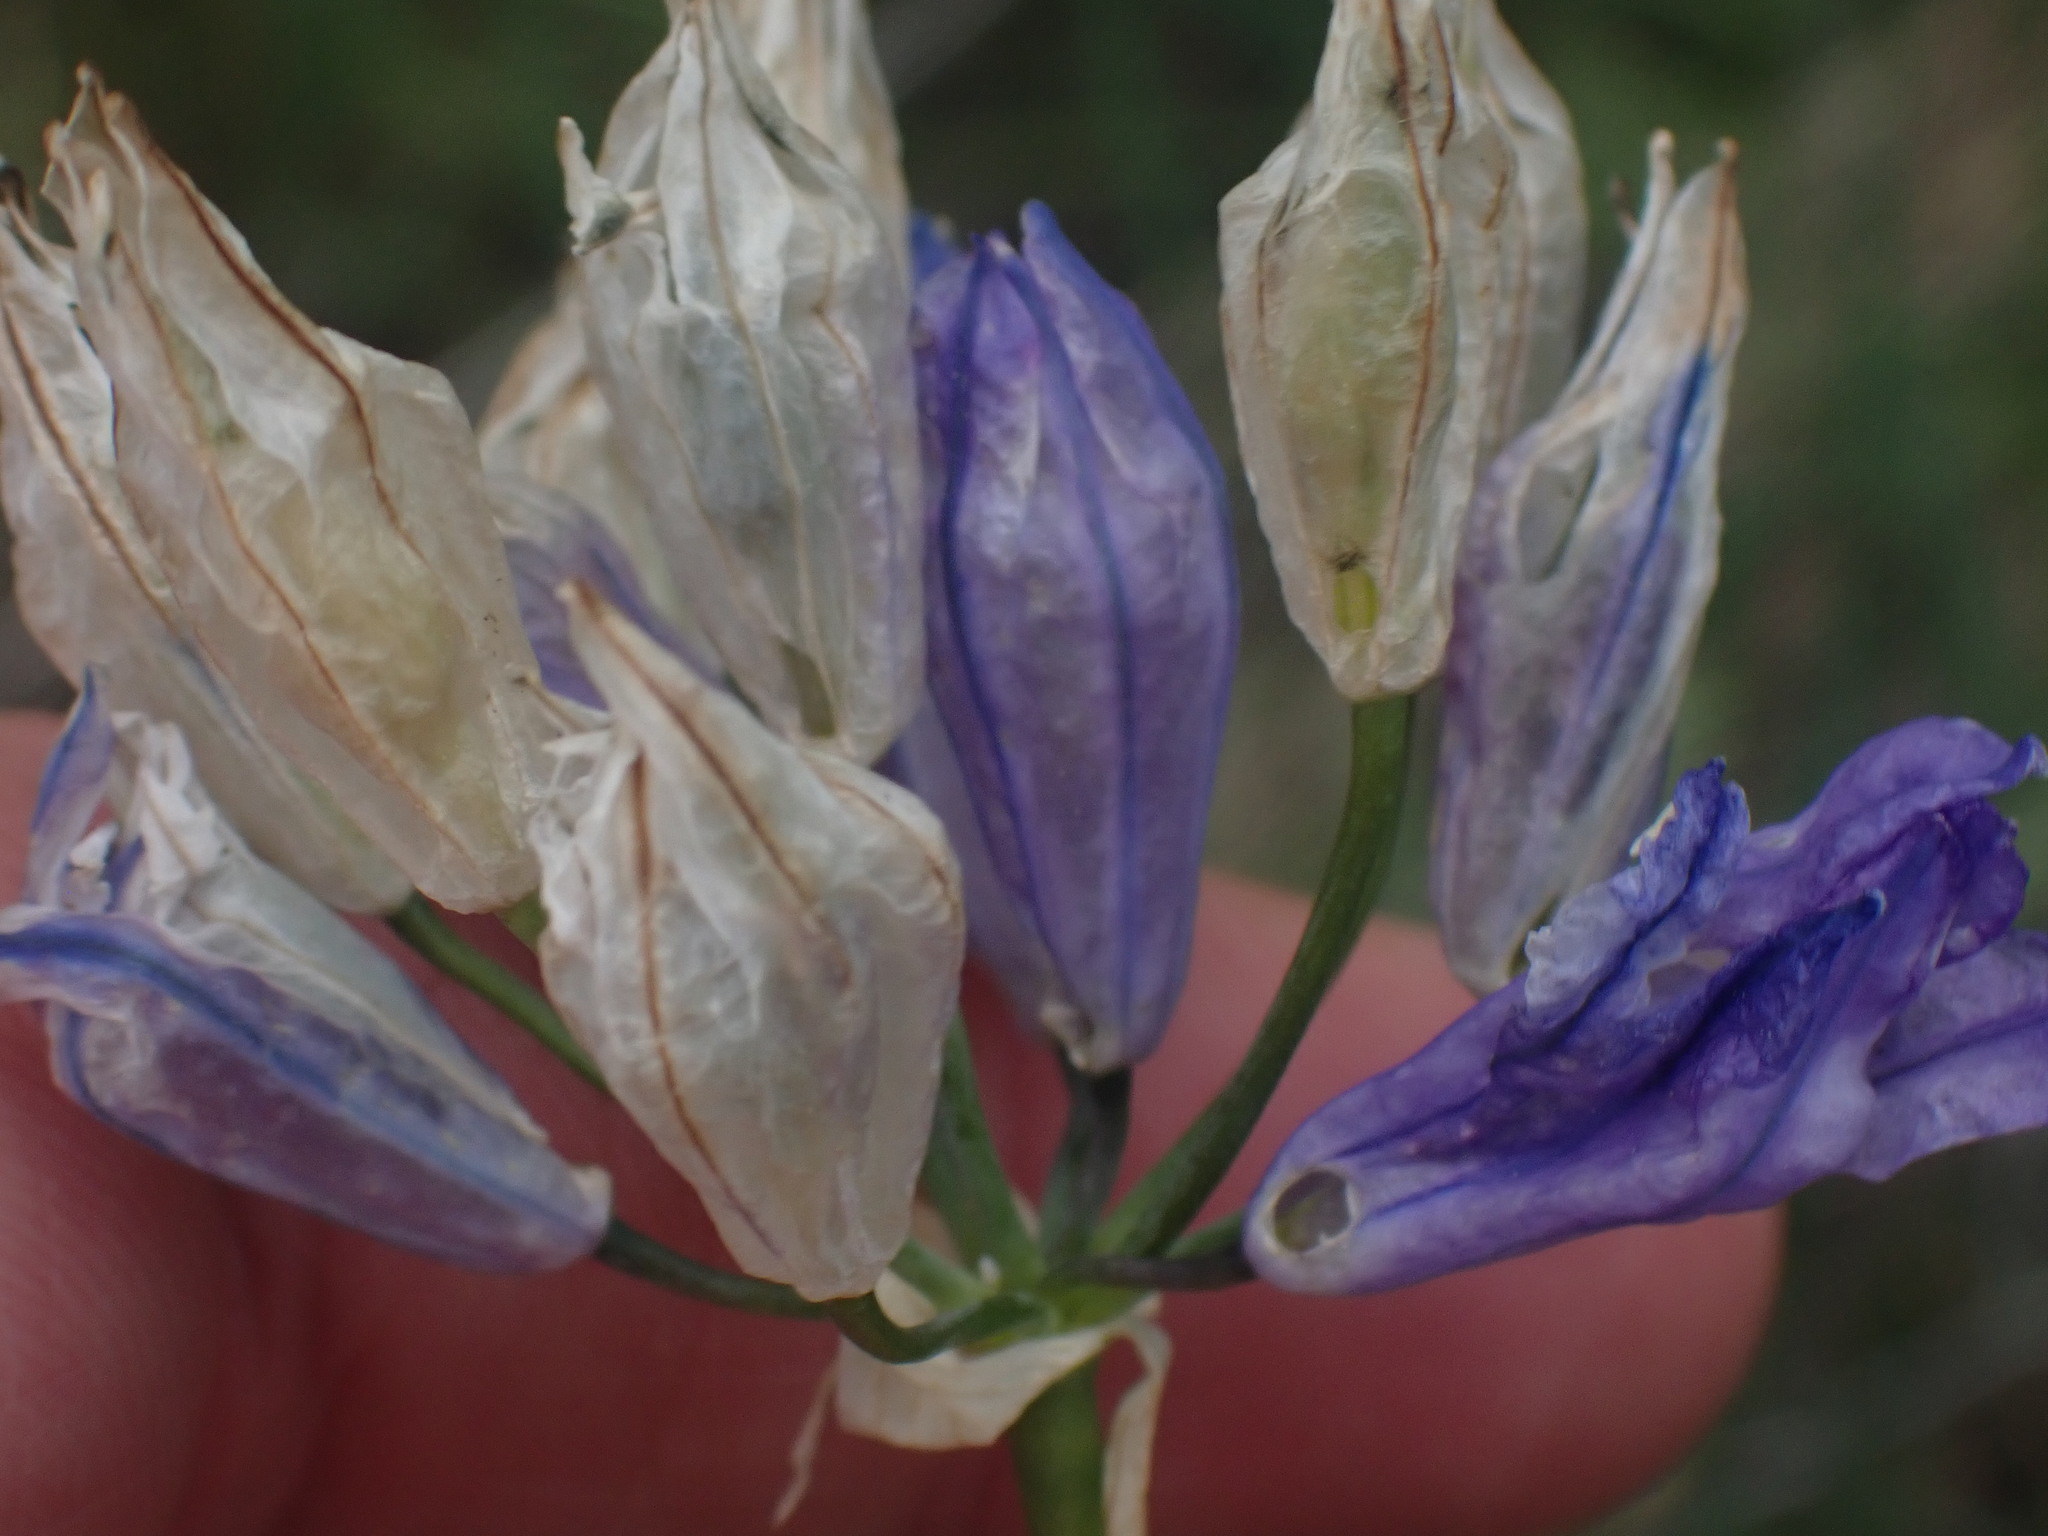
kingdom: Plantae
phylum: Tracheophyta
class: Liliopsida
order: Asparagales
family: Asparagaceae
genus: Triteleia
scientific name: Triteleia grandiflora
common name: Wild hyacinth
